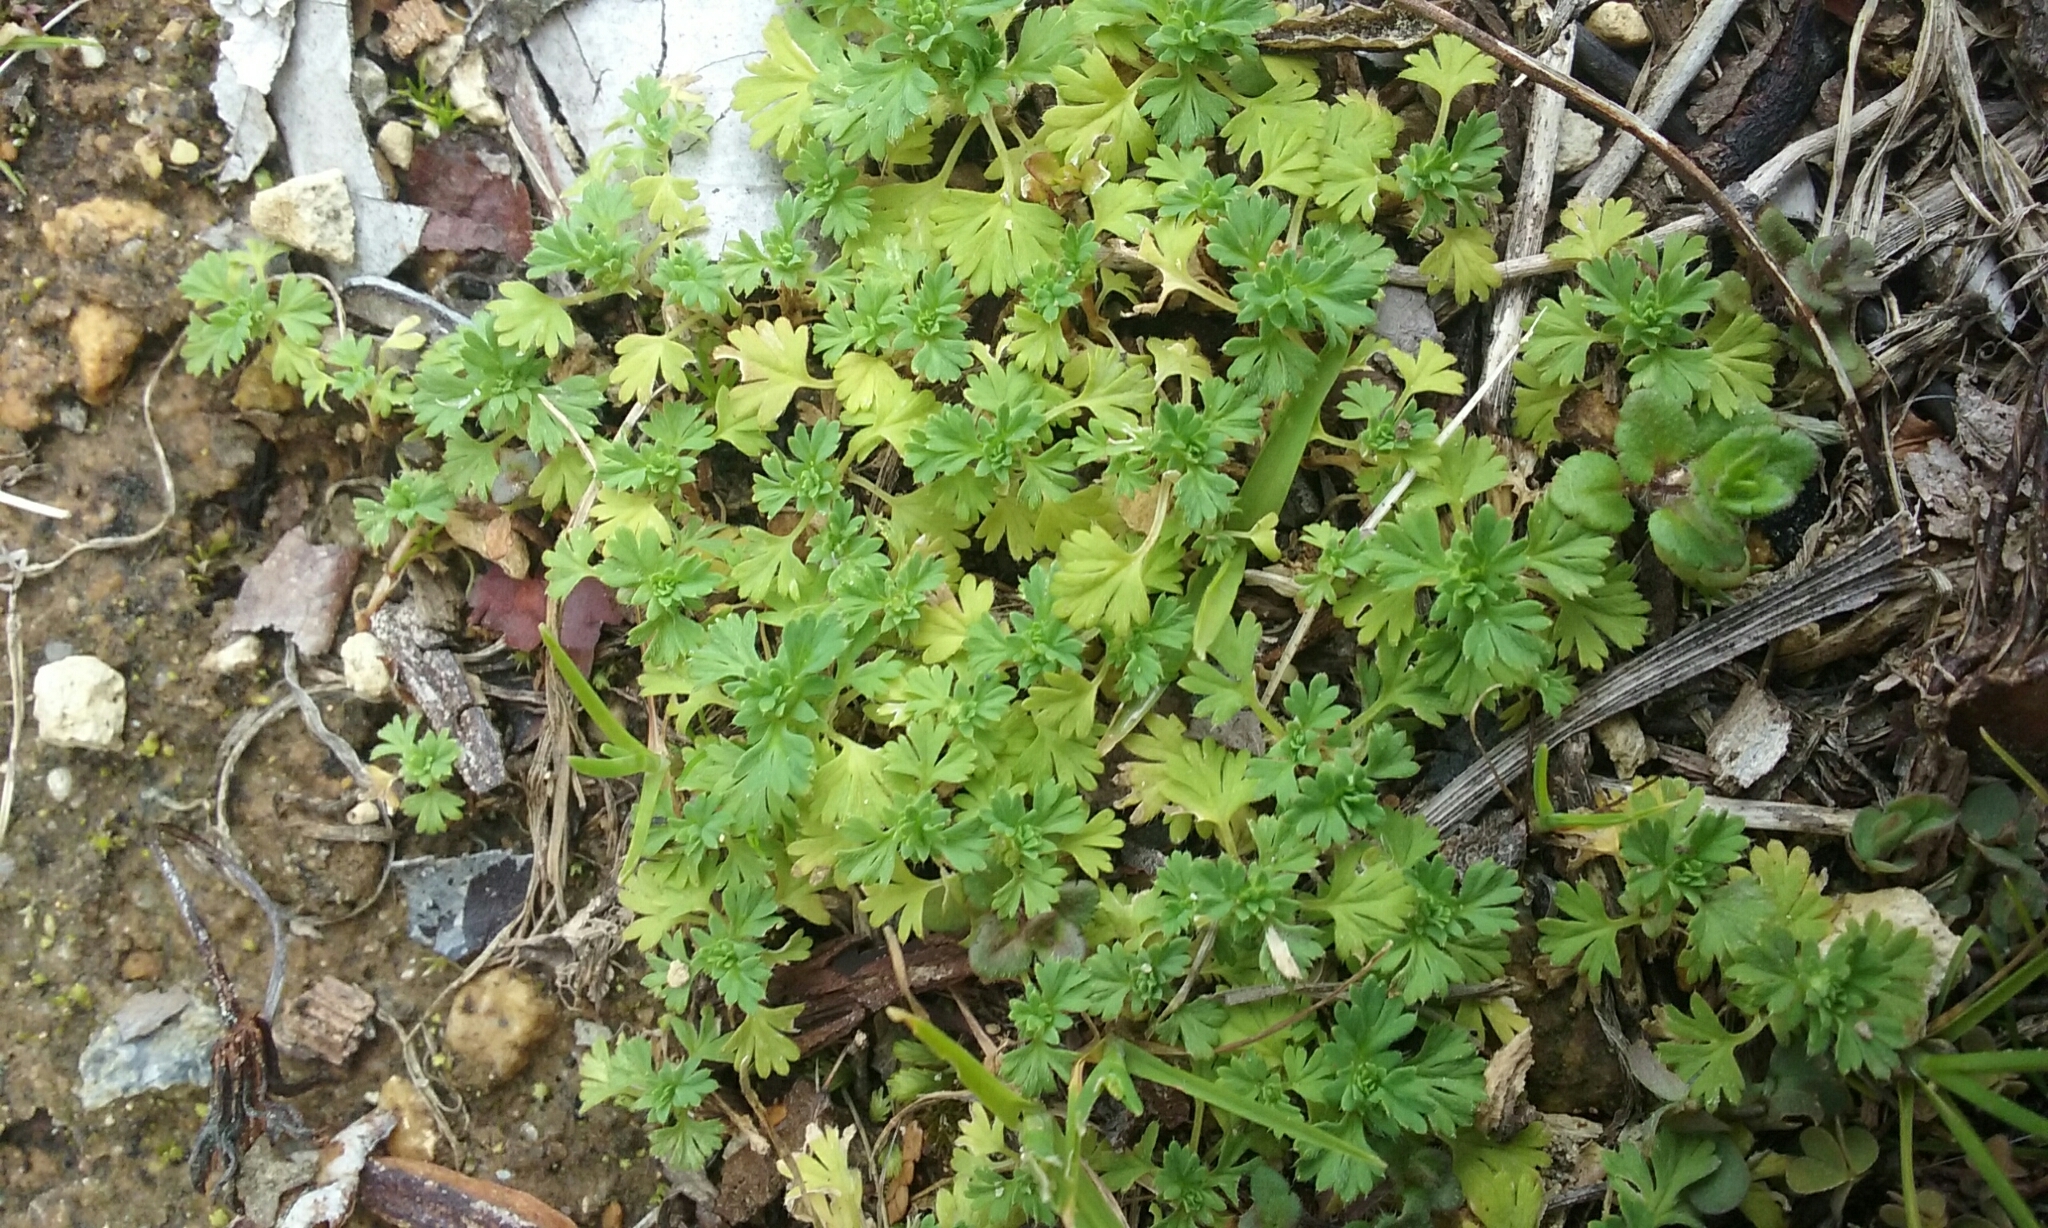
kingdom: Plantae
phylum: Tracheophyta
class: Magnoliopsida
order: Rosales
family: Rosaceae
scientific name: Rosaceae
